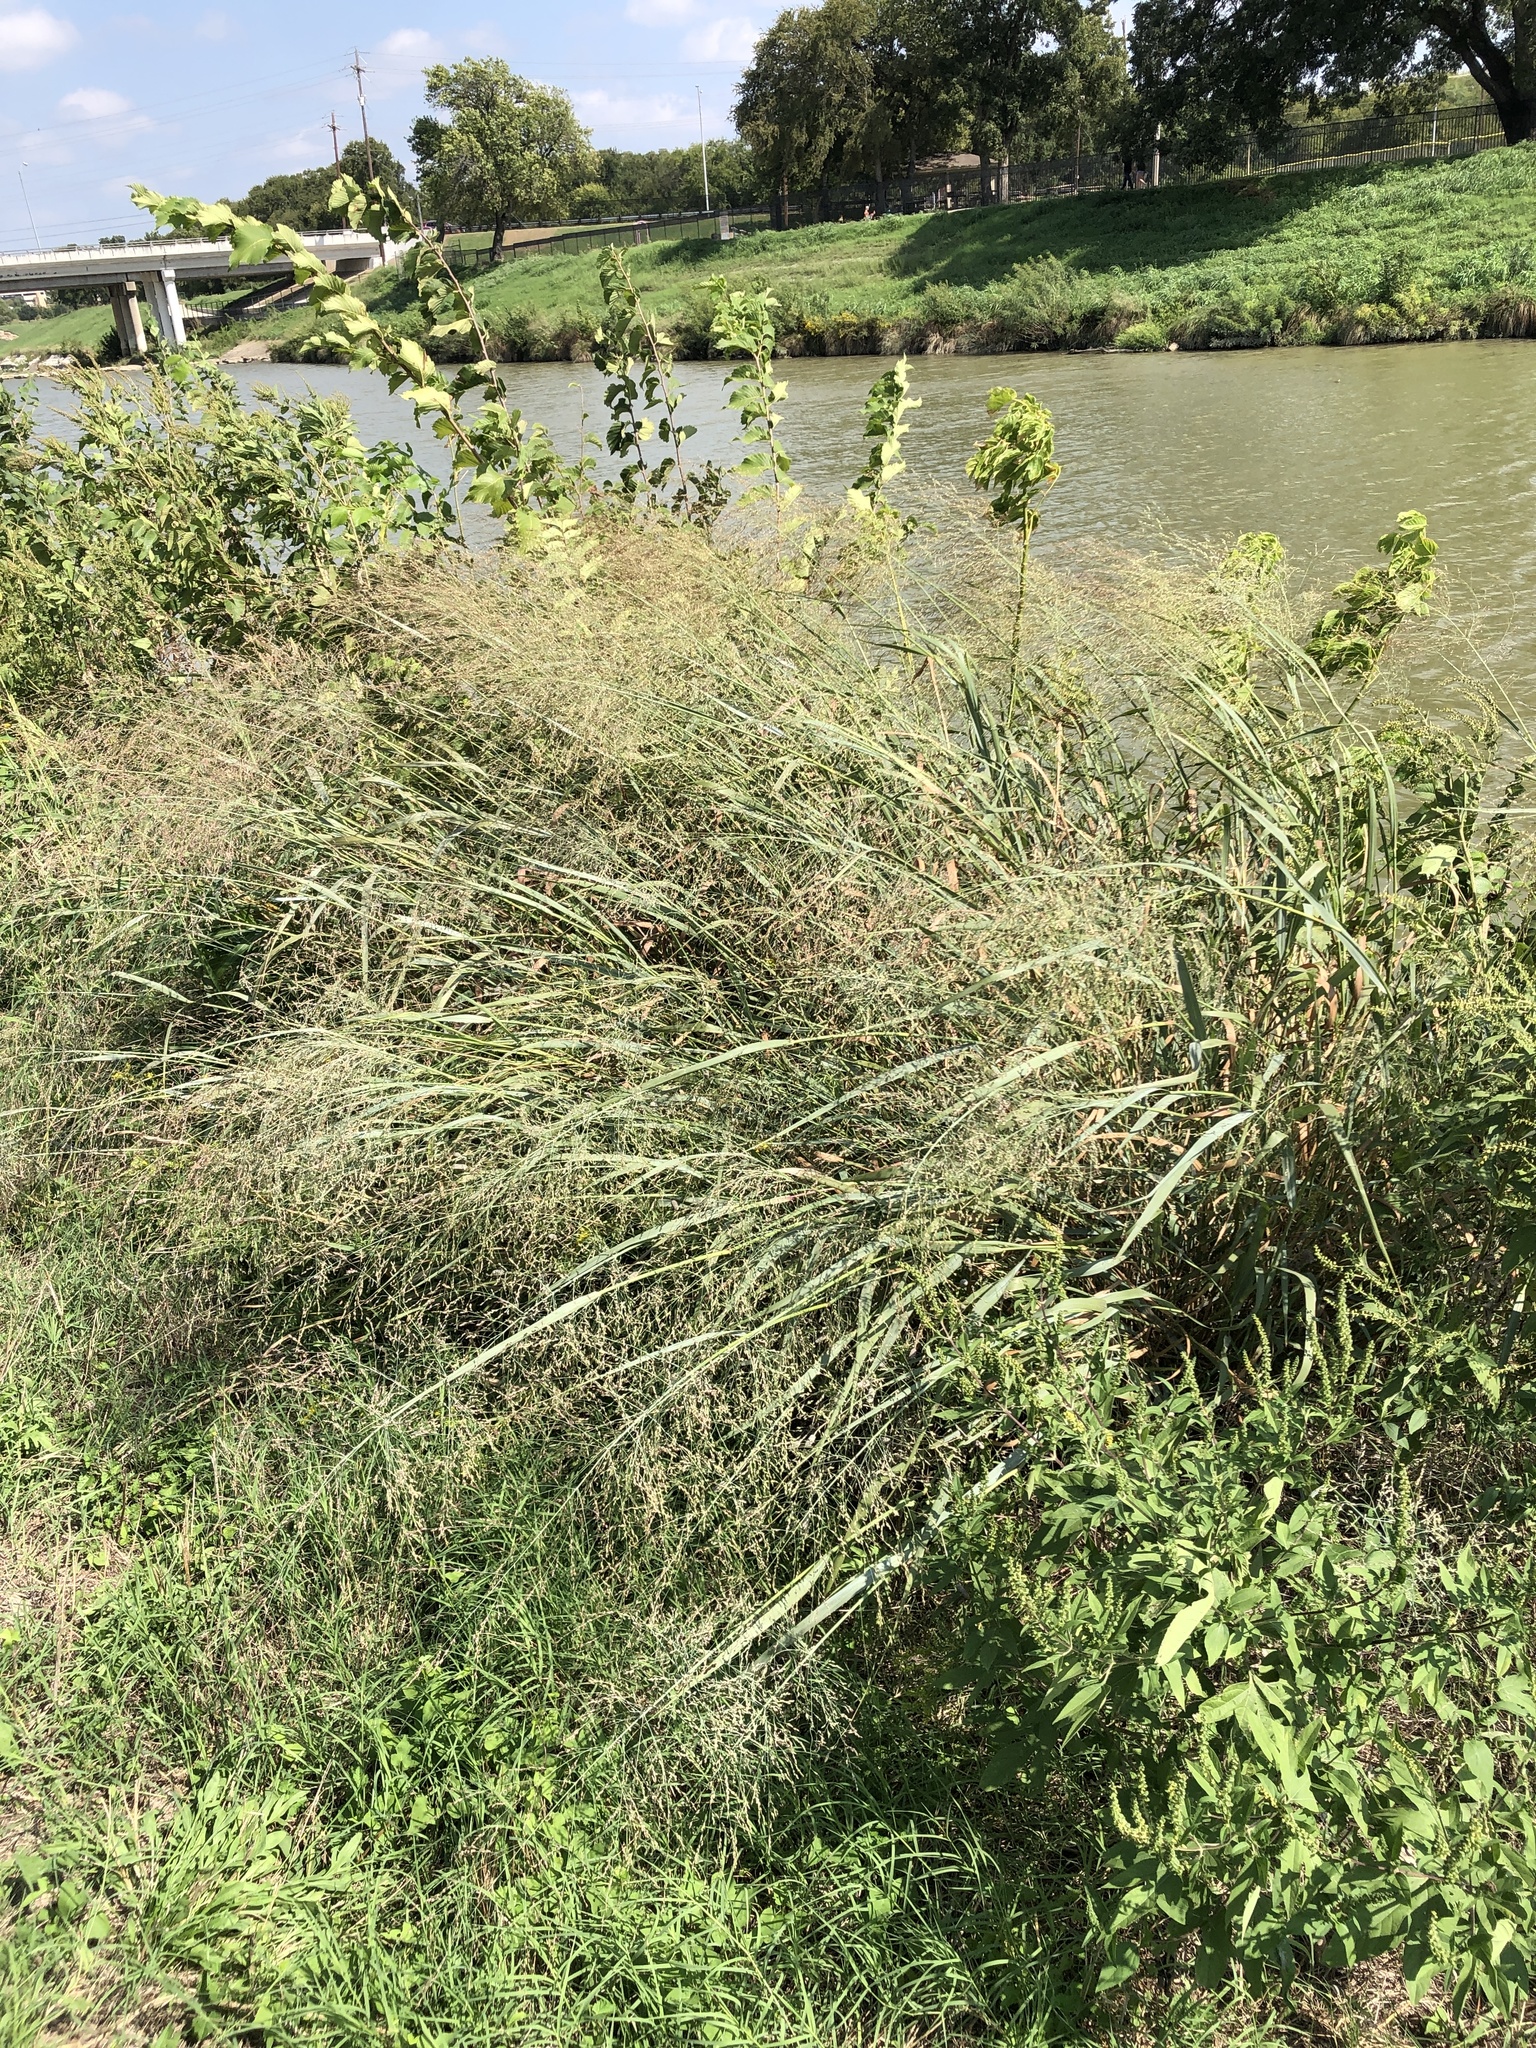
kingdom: Plantae
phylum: Tracheophyta
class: Liliopsida
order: Poales
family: Poaceae
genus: Panicum
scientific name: Panicum virgatum
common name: Switchgrass
